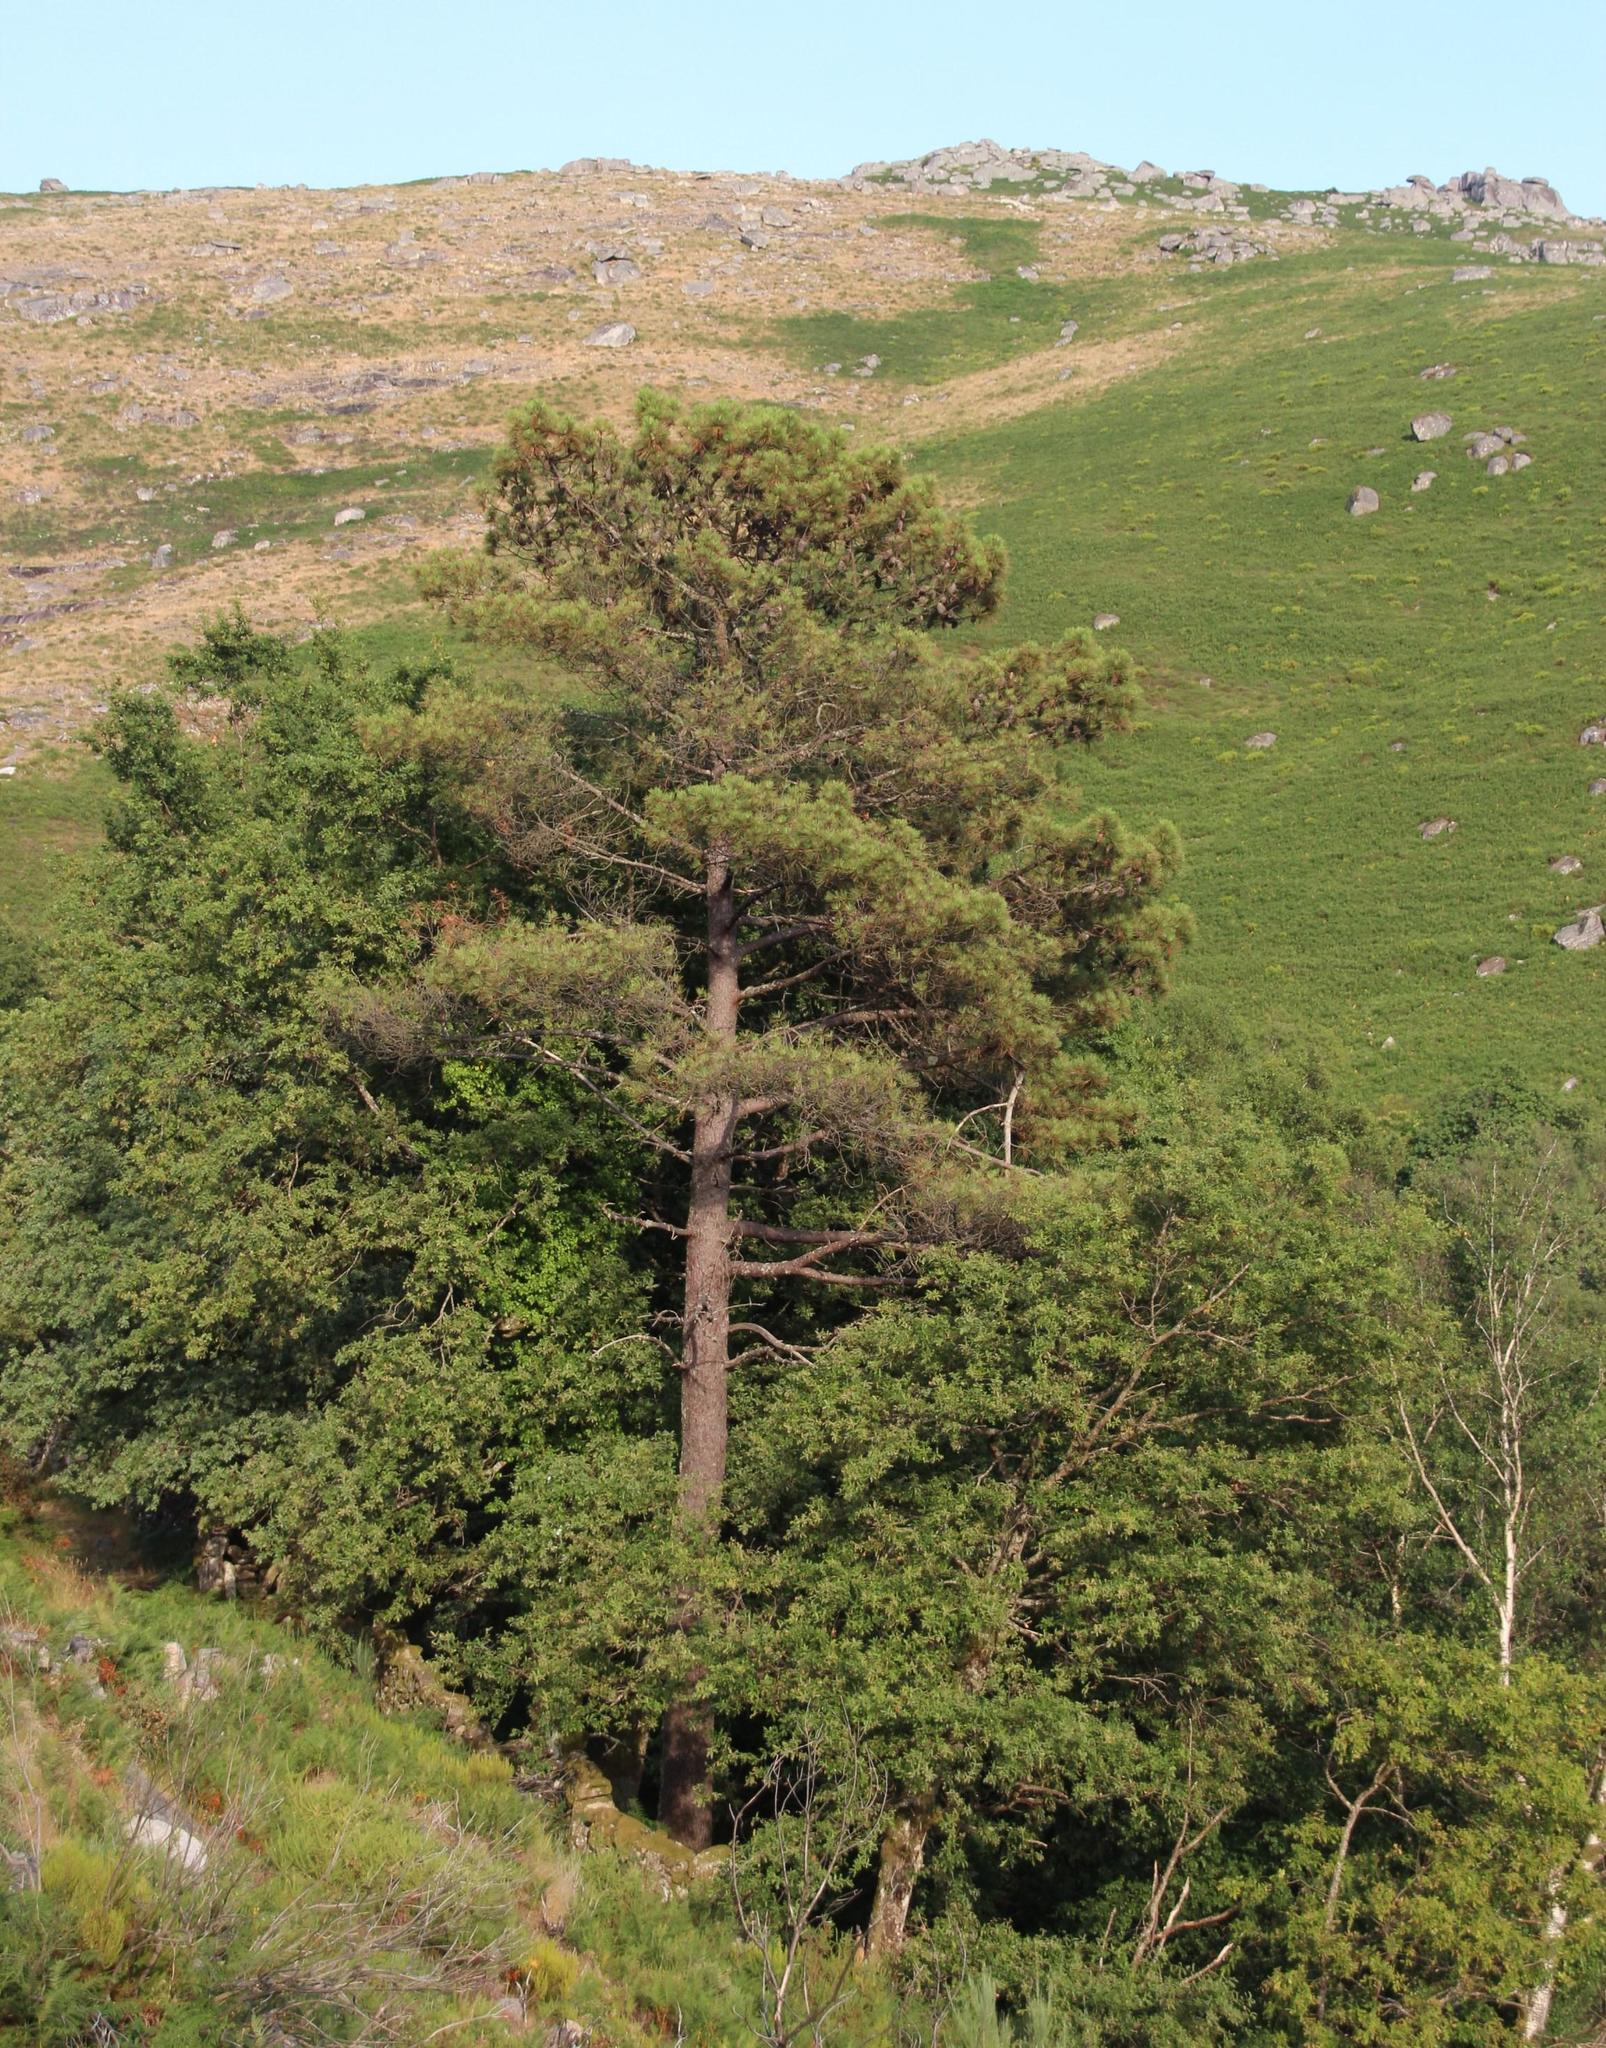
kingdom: Plantae
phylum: Tracheophyta
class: Pinopsida
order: Pinales
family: Pinaceae
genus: Pinus
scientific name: Pinus sylvestris
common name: Scots pine
